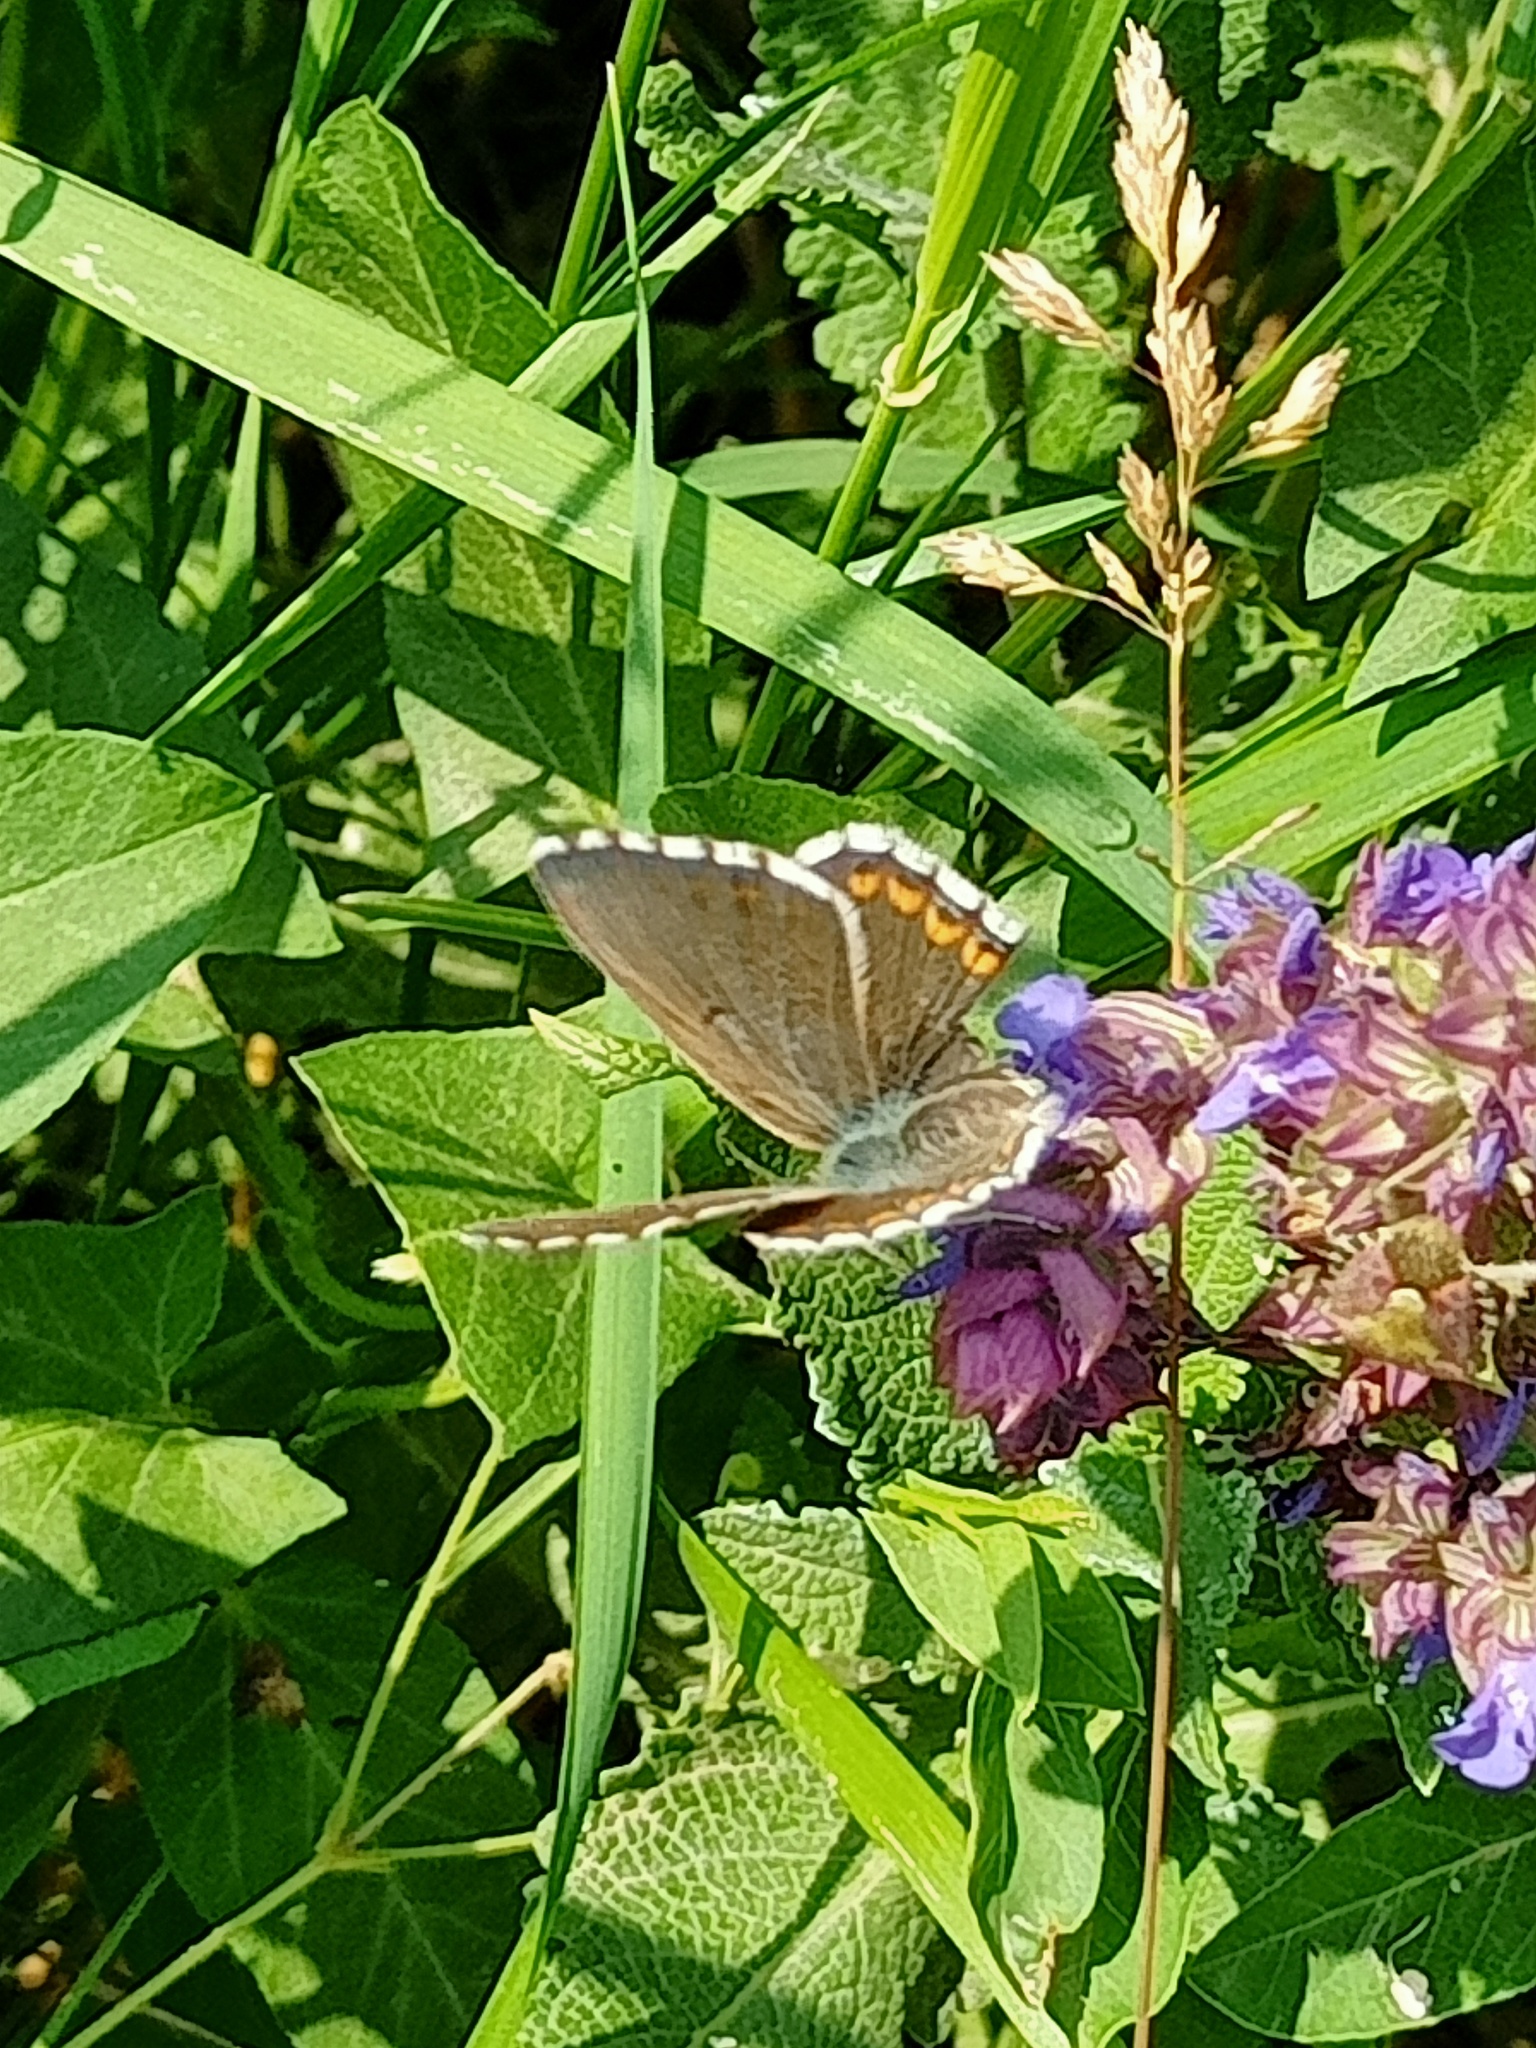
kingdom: Animalia
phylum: Arthropoda
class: Insecta
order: Lepidoptera
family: Lycaenidae
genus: Lysandra
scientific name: Lysandra bellargus
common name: Adonis blue
